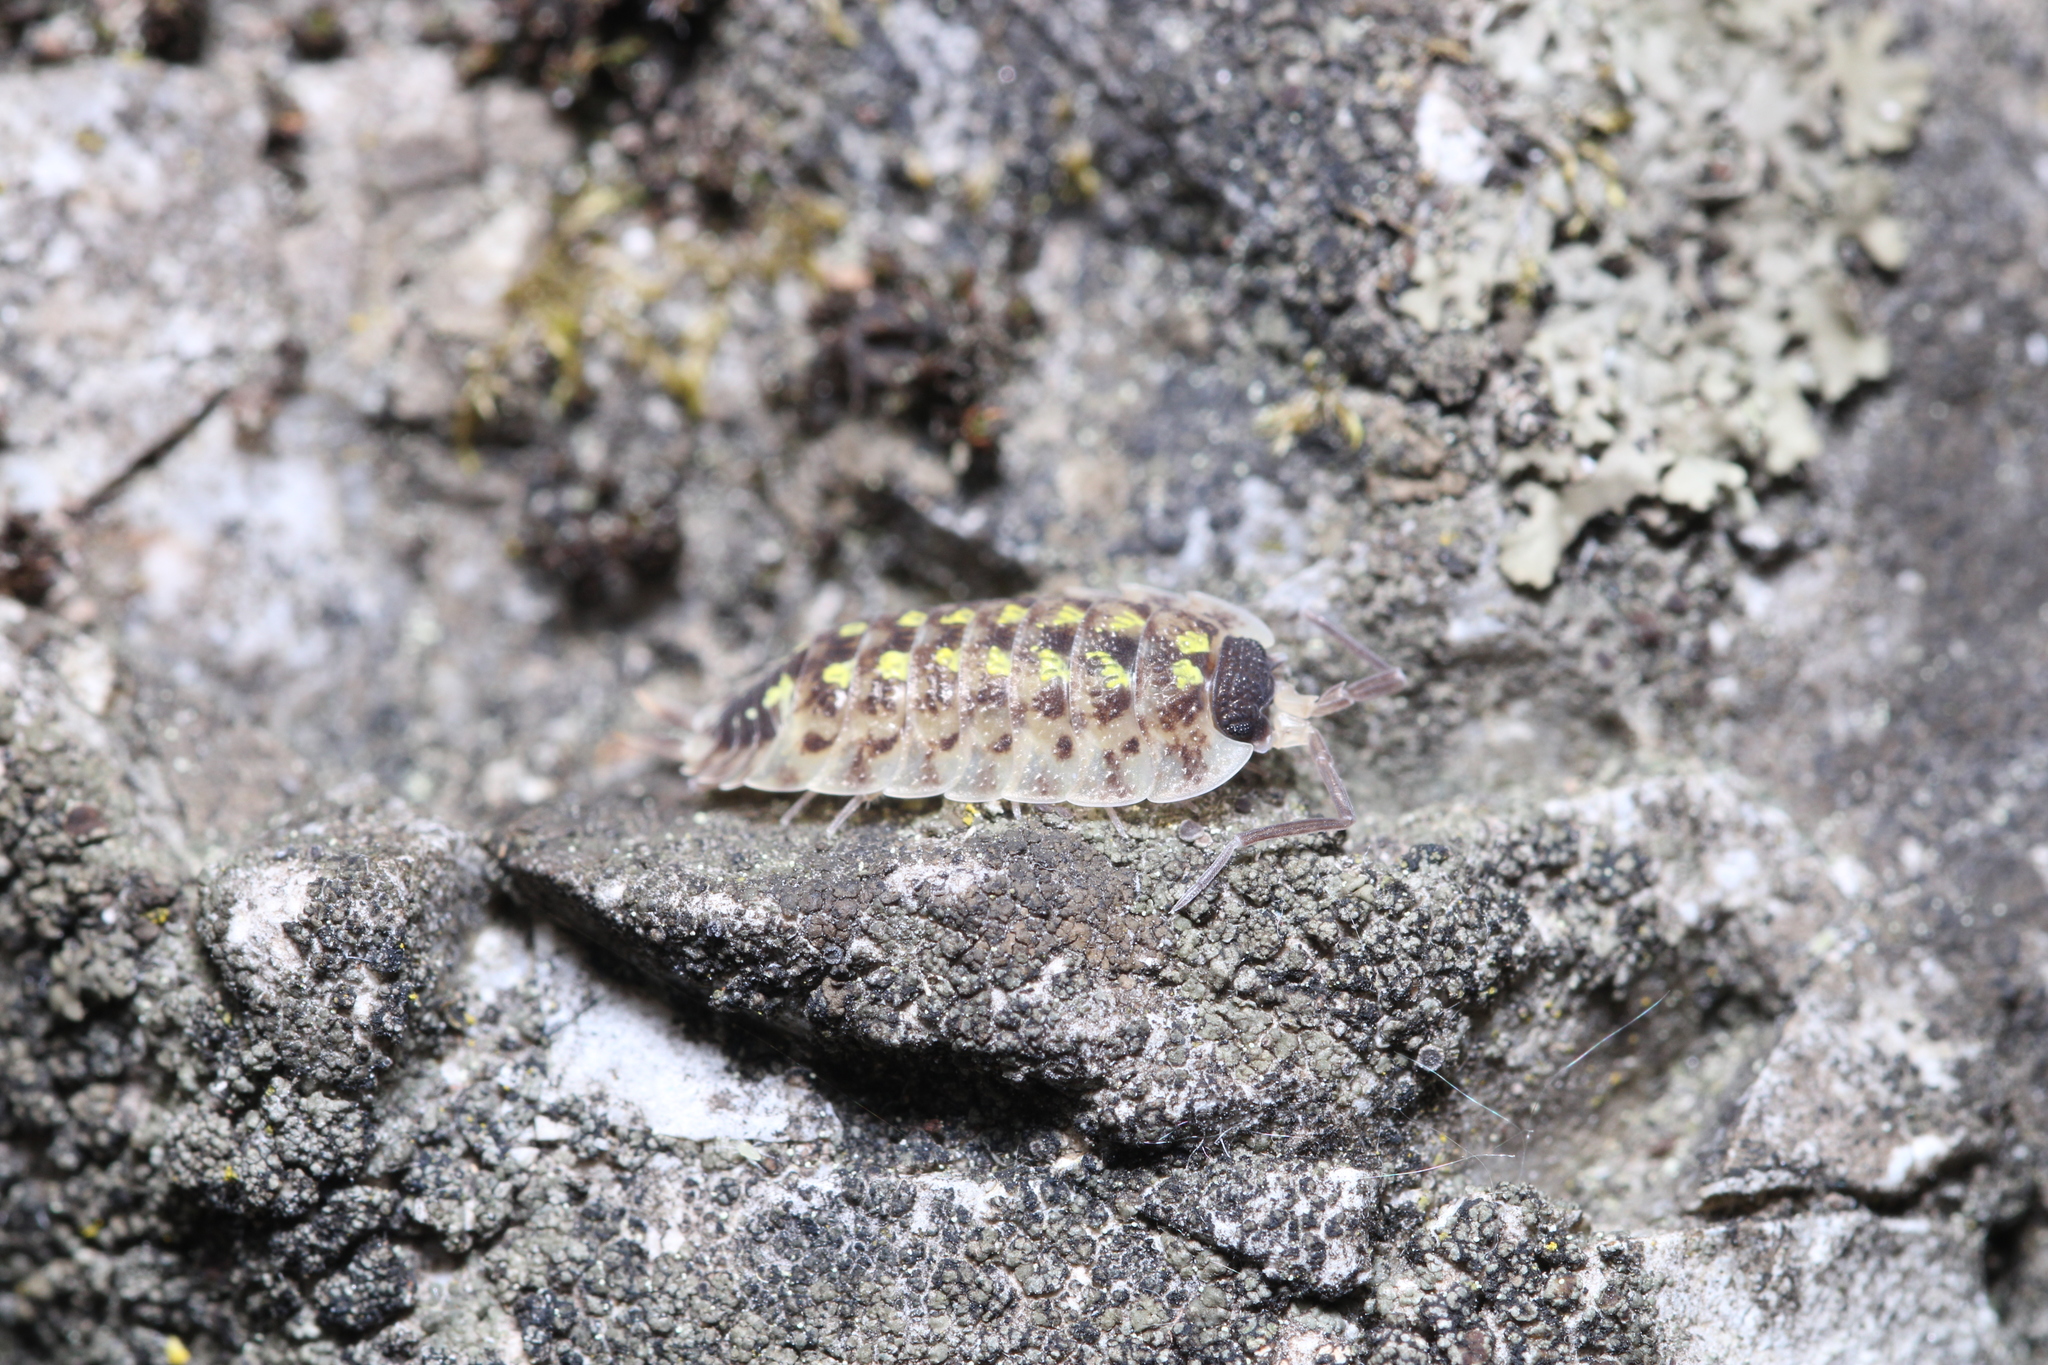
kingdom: Animalia
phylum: Arthropoda
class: Malacostraca
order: Isopoda
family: Porcellionidae
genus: Porcellio
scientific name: Porcellio spinicornis
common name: Painted woodlouse
